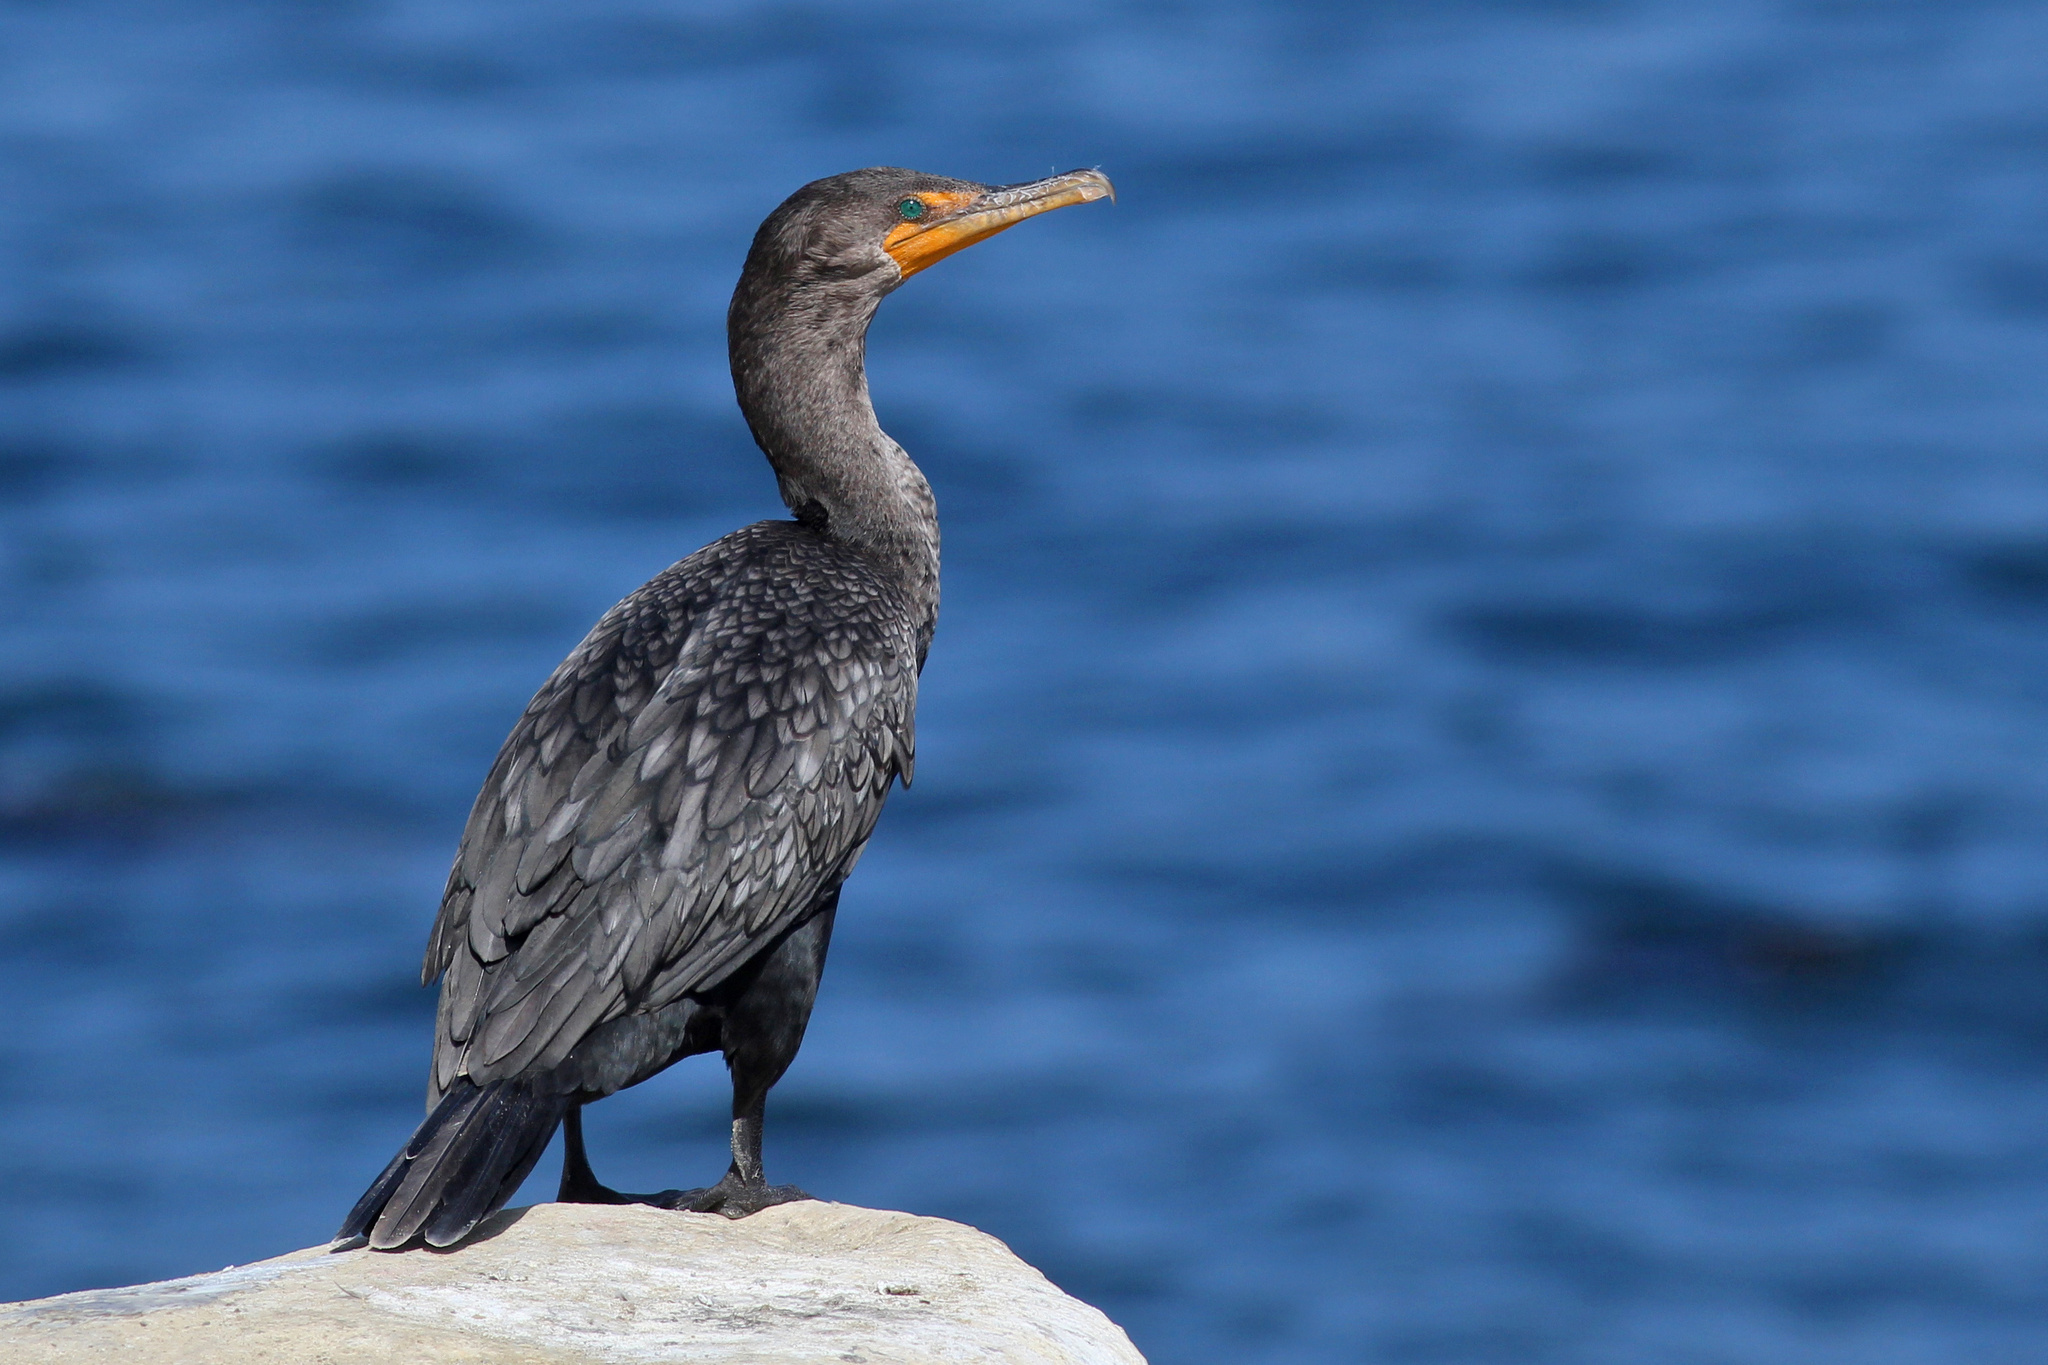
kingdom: Animalia
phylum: Chordata
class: Aves
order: Suliformes
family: Phalacrocoracidae
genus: Phalacrocorax
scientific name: Phalacrocorax auritus
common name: Double-crested cormorant
